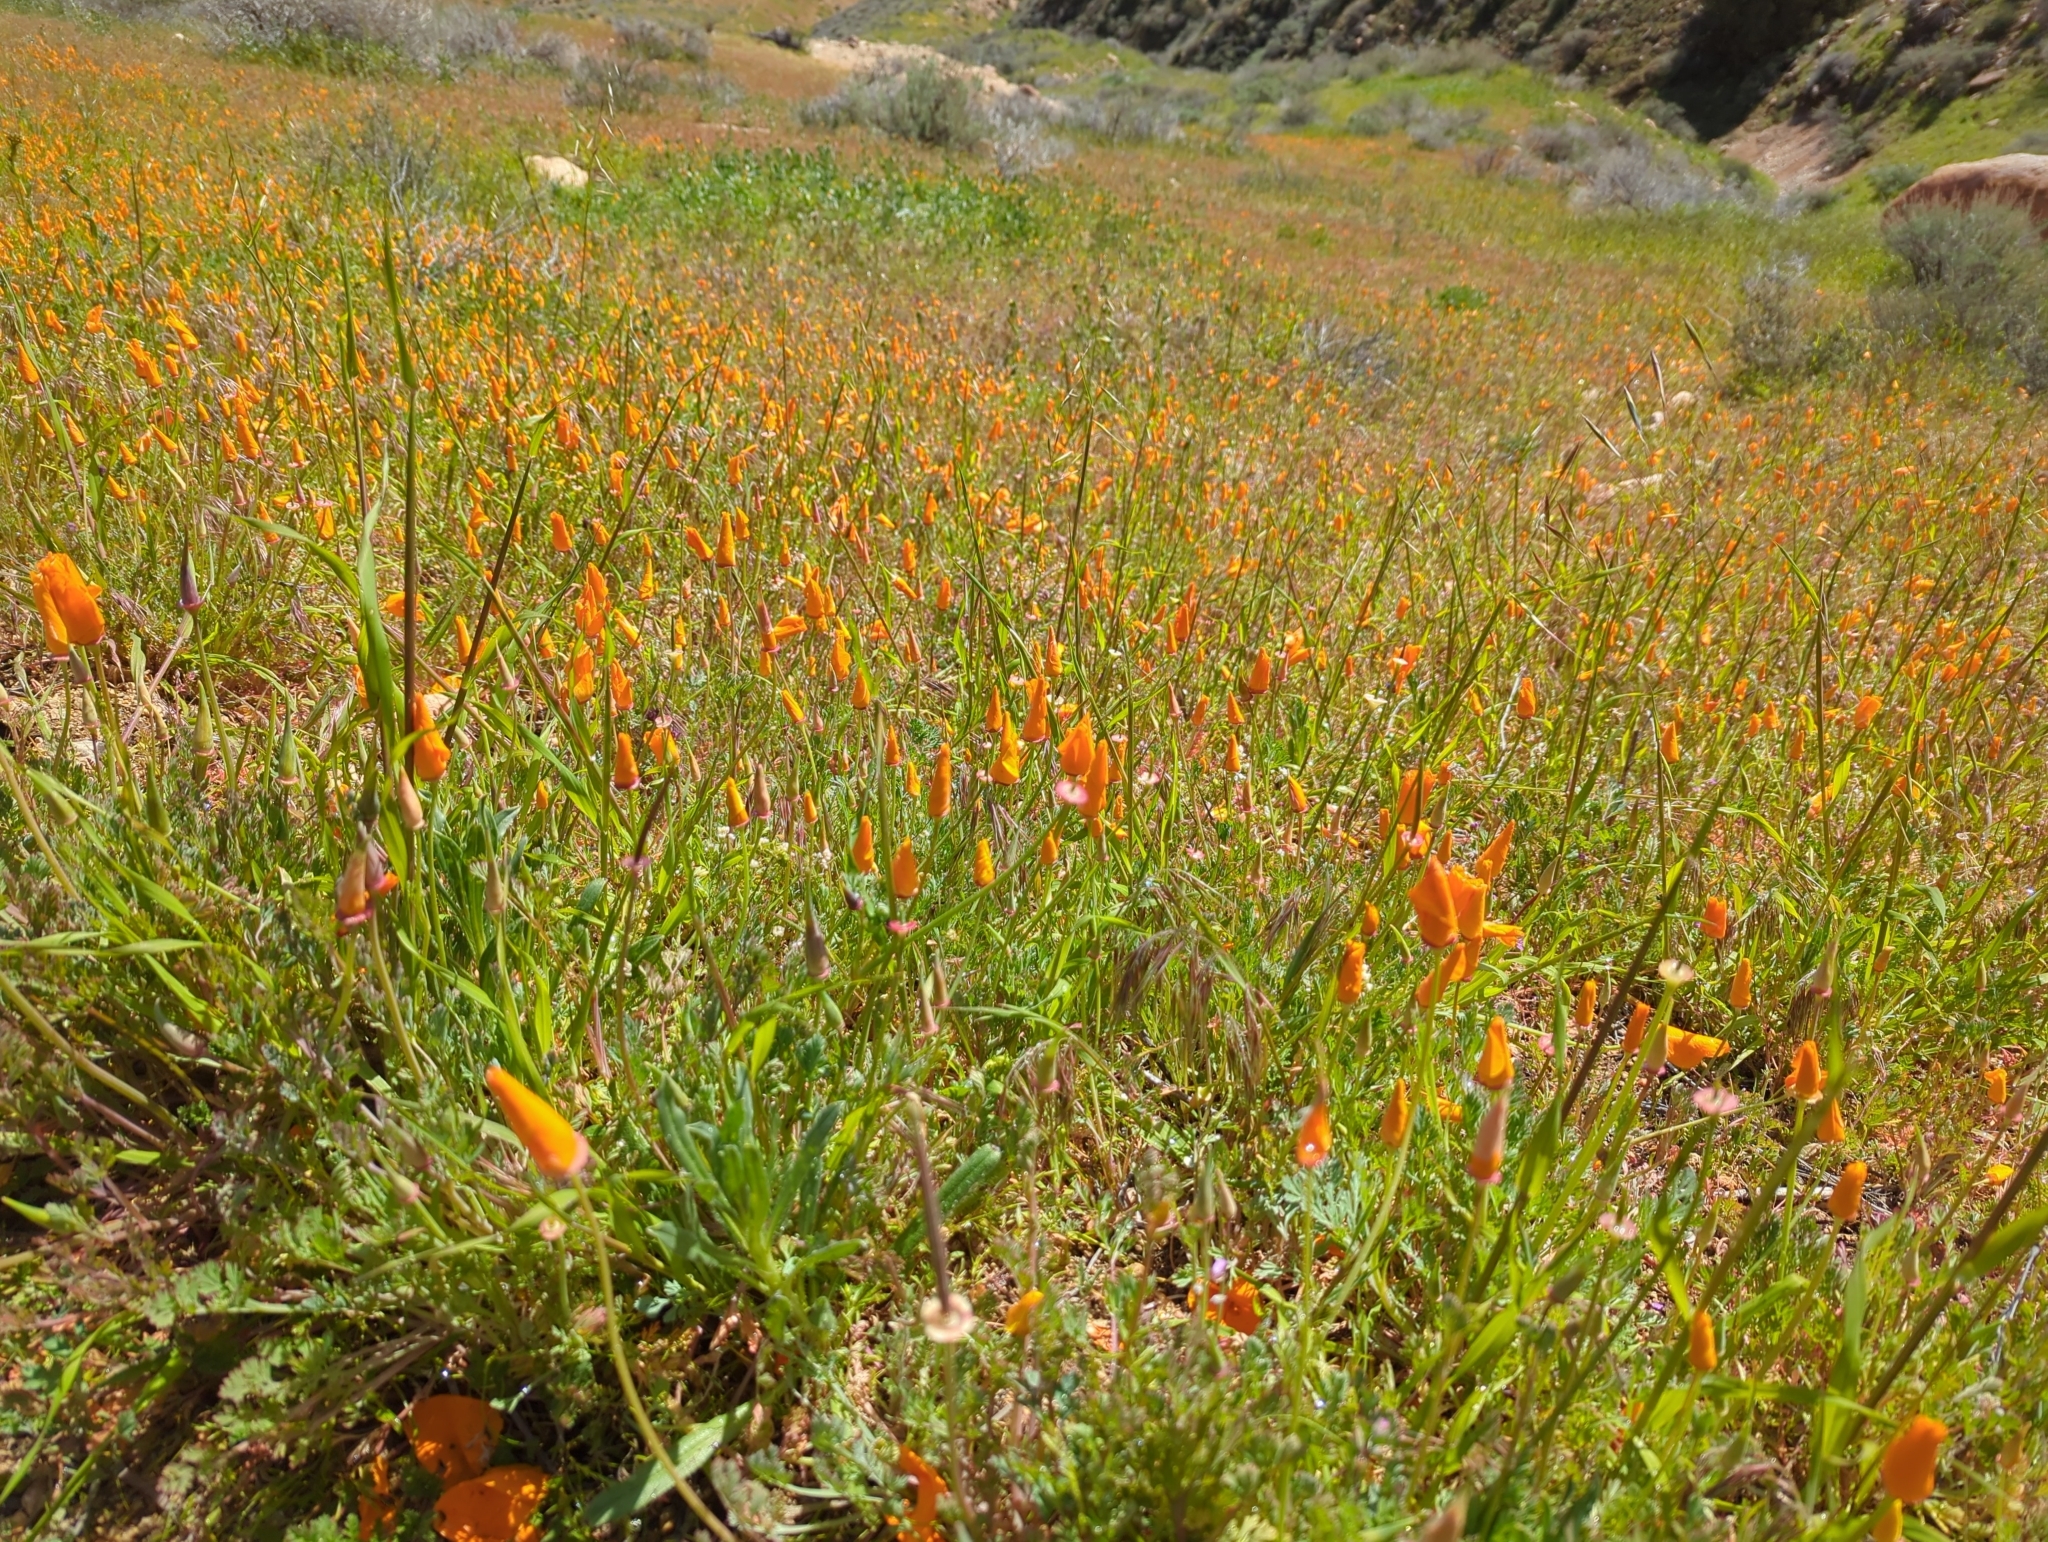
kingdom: Plantae
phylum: Tracheophyta
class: Magnoliopsida
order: Ranunculales
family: Papaveraceae
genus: Eschscholzia
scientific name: Eschscholzia californica
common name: California poppy
